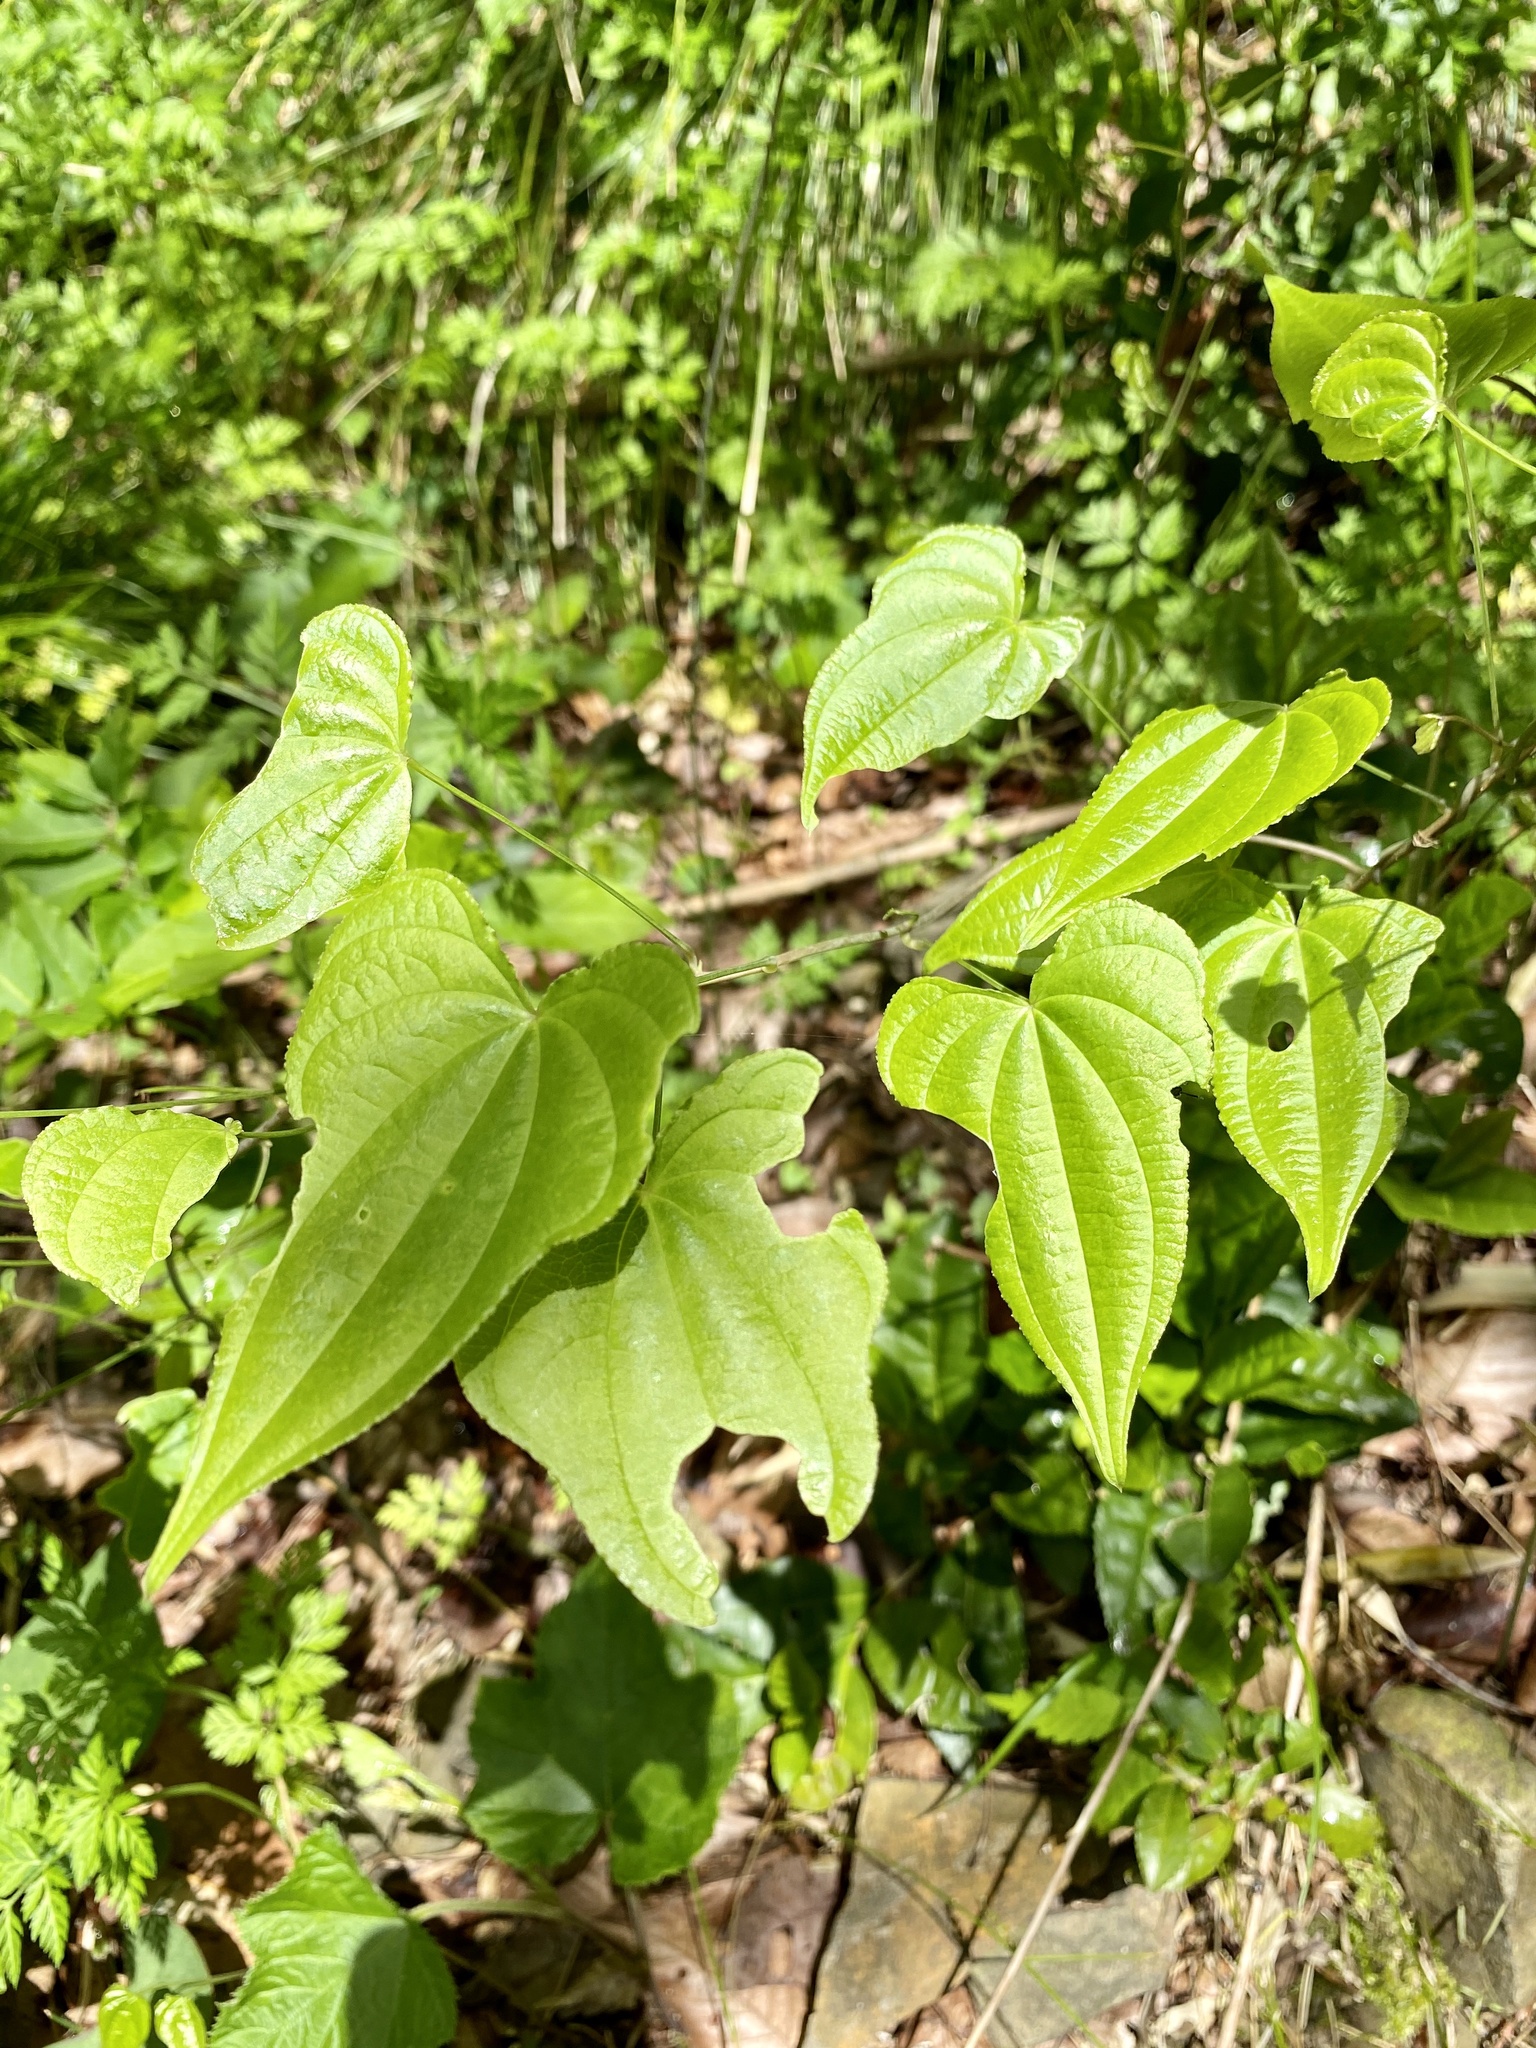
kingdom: Plantae
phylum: Tracheophyta
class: Liliopsida
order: Dioscoreales
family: Dioscoreaceae
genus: Dioscorea
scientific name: Dioscorea japonica
